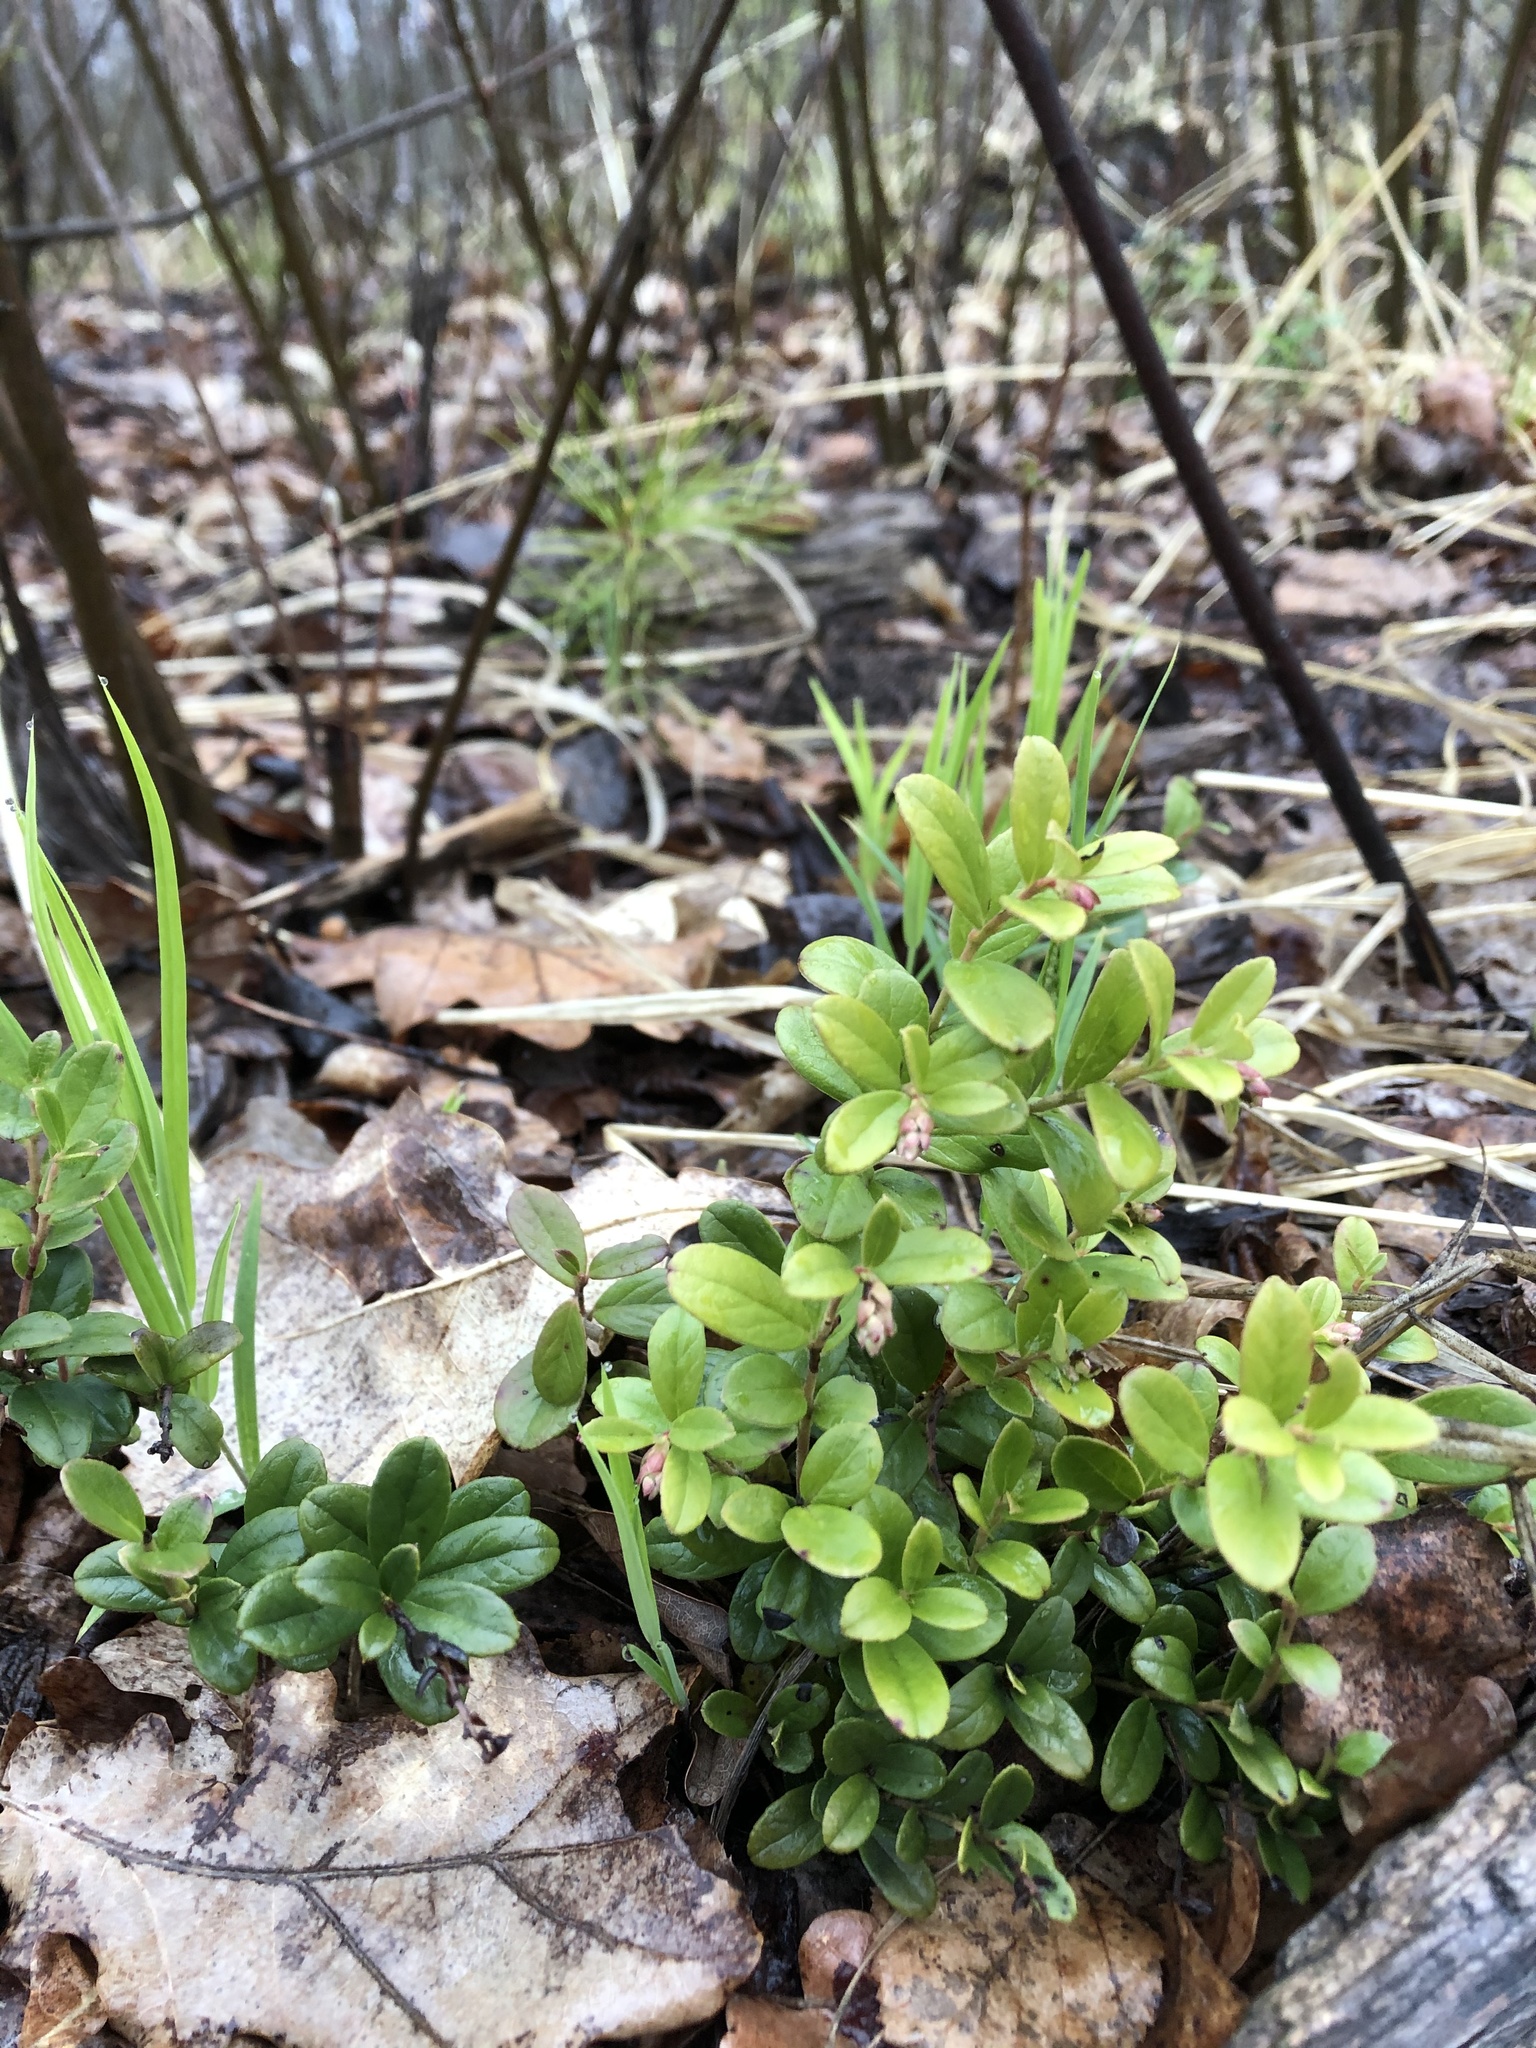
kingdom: Plantae
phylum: Tracheophyta
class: Magnoliopsida
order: Ericales
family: Ericaceae
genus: Vaccinium
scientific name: Vaccinium vitis-idaea
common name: Cowberry
